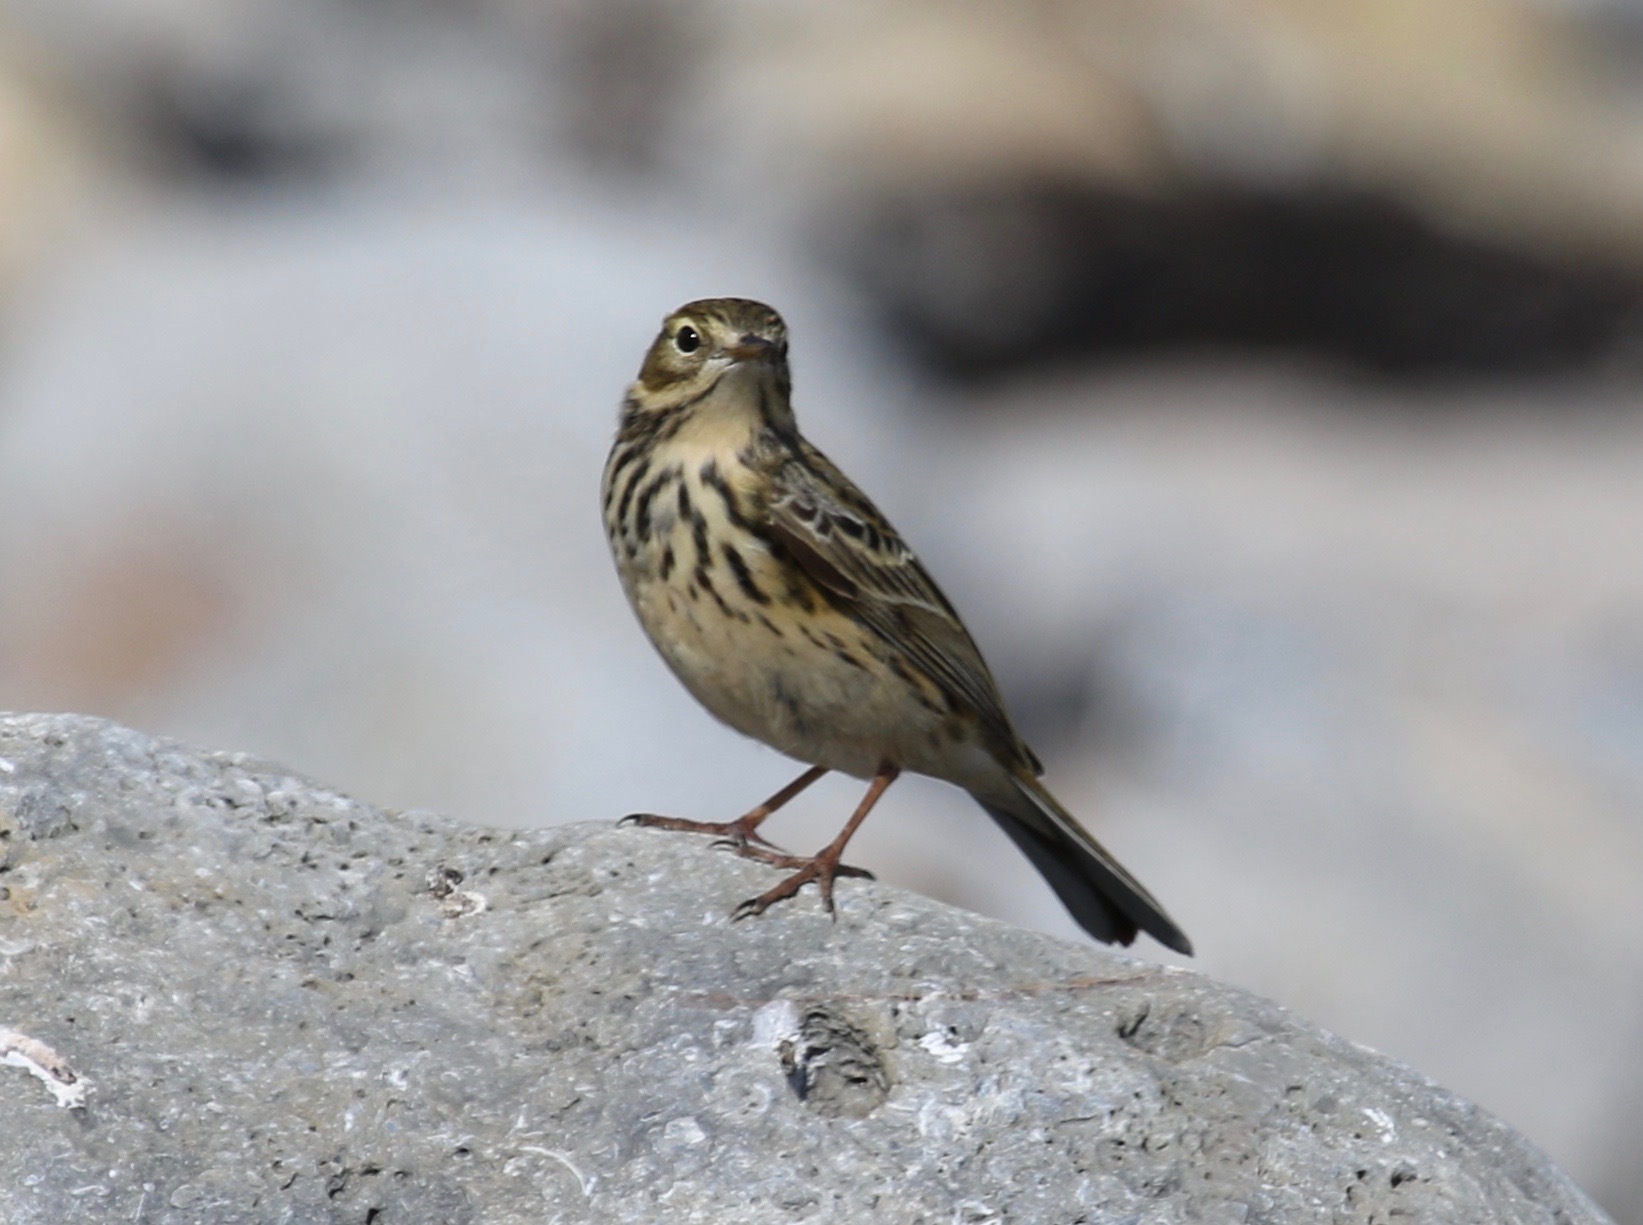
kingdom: Animalia
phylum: Chordata
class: Aves
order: Passeriformes
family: Motacillidae
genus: Anthus
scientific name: Anthus pratensis
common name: Meadow pipit
